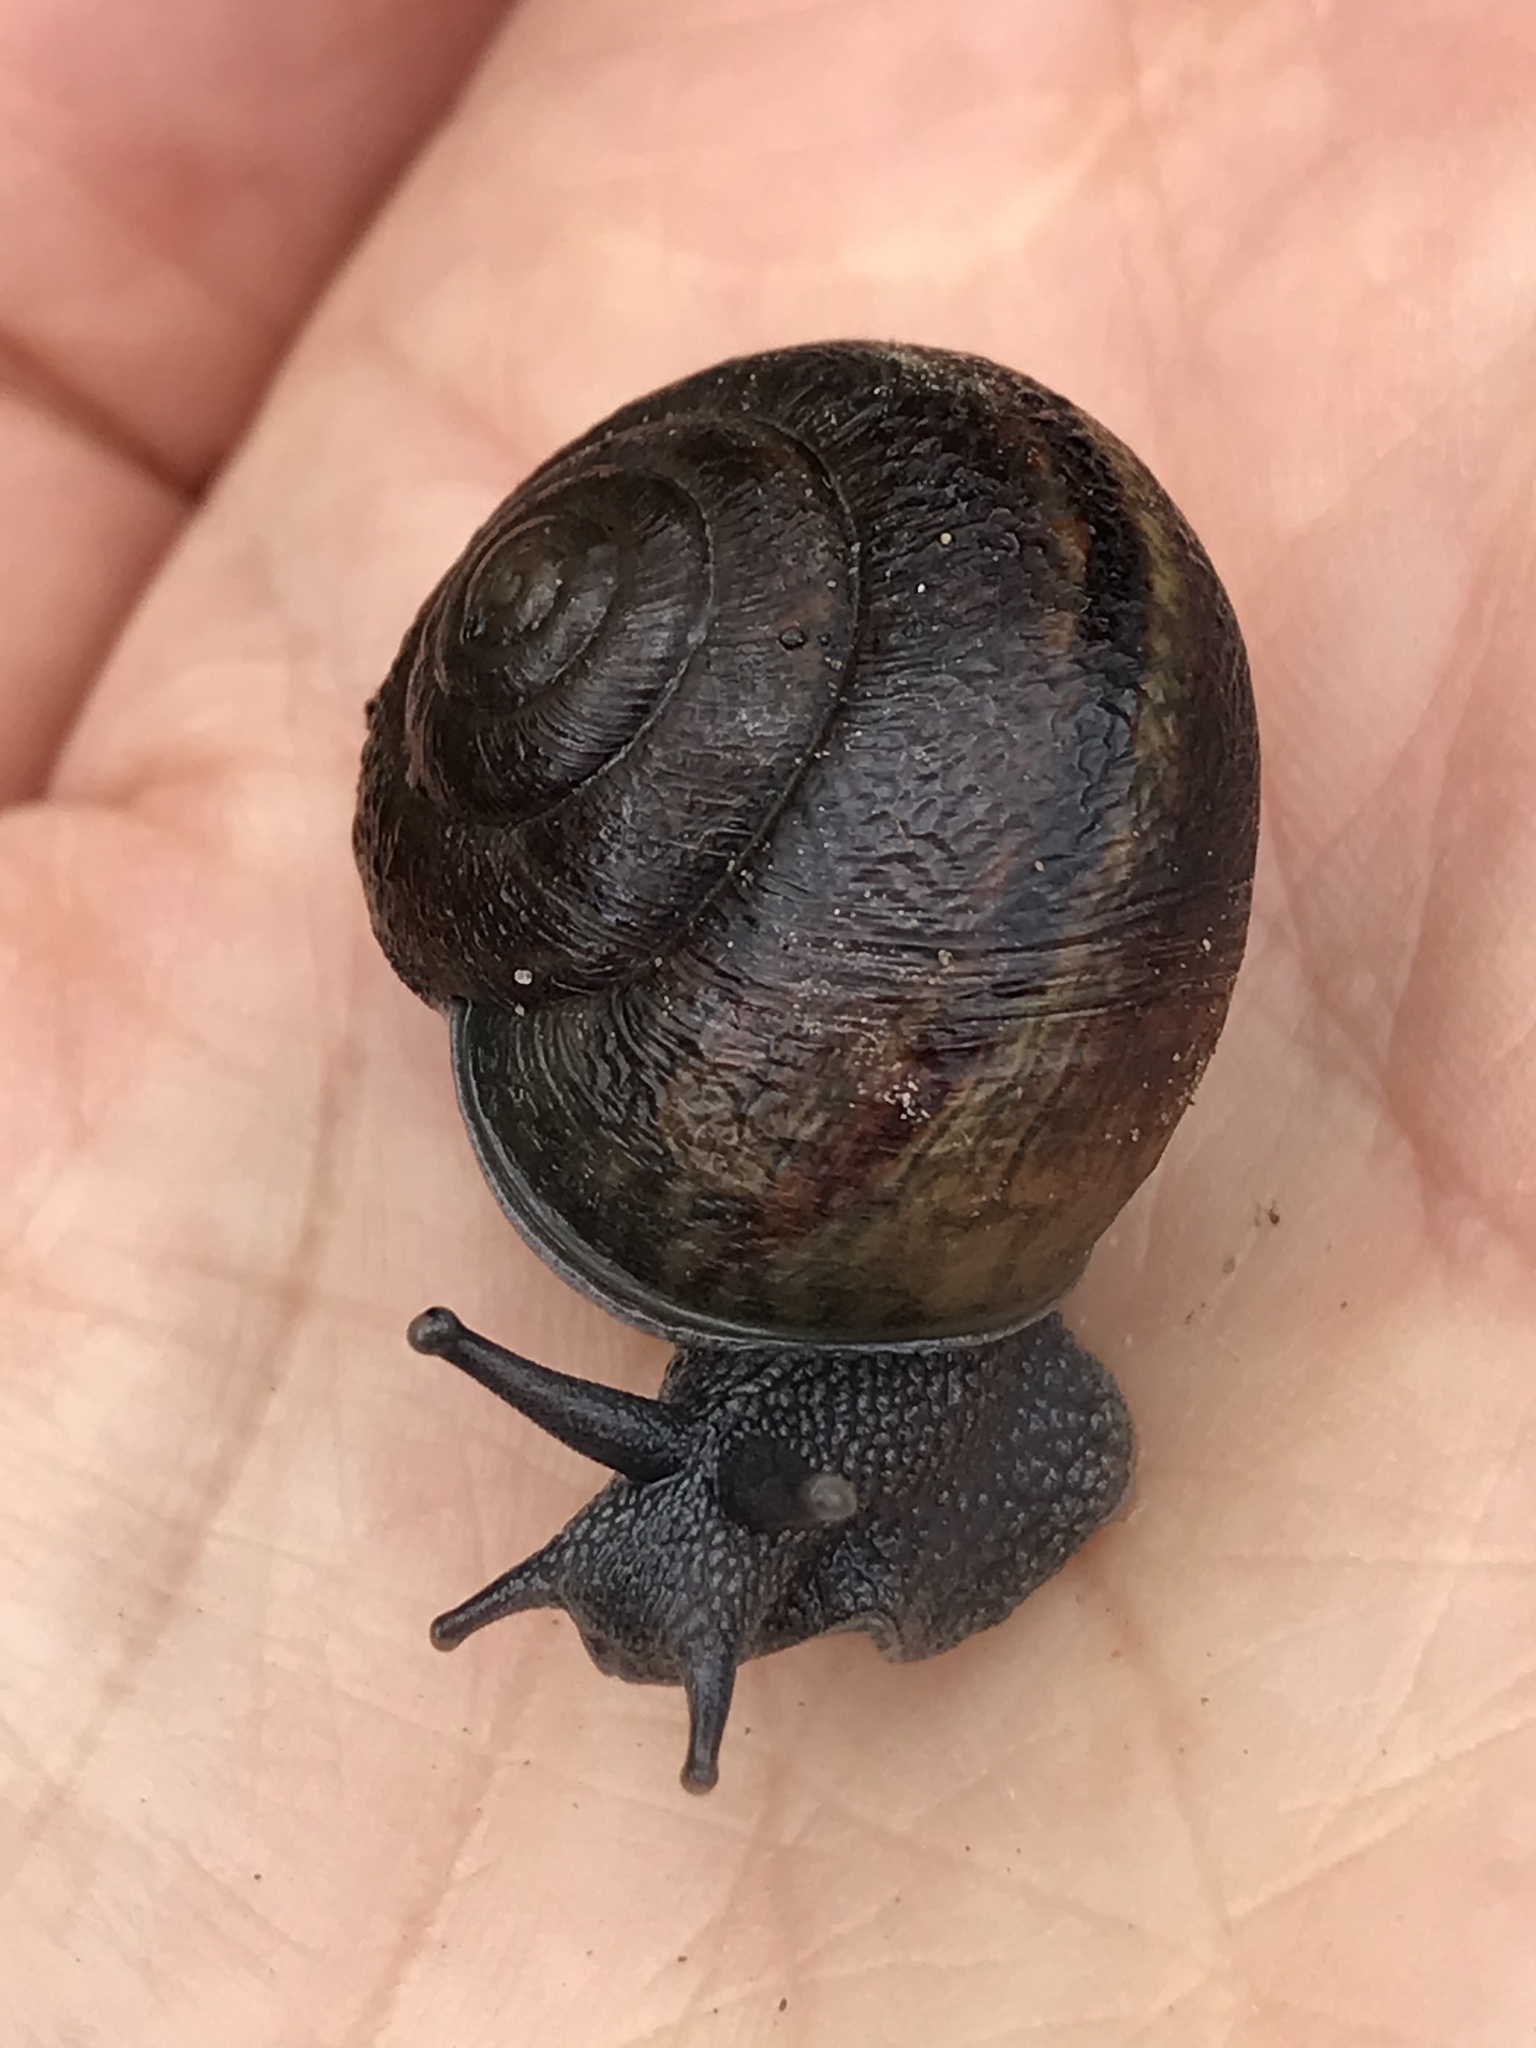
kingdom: Animalia
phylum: Mollusca
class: Gastropoda
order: Stylommatophora
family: Xanthonychidae
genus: Helminthoglypta
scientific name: Helminthoglypta tudiculata
